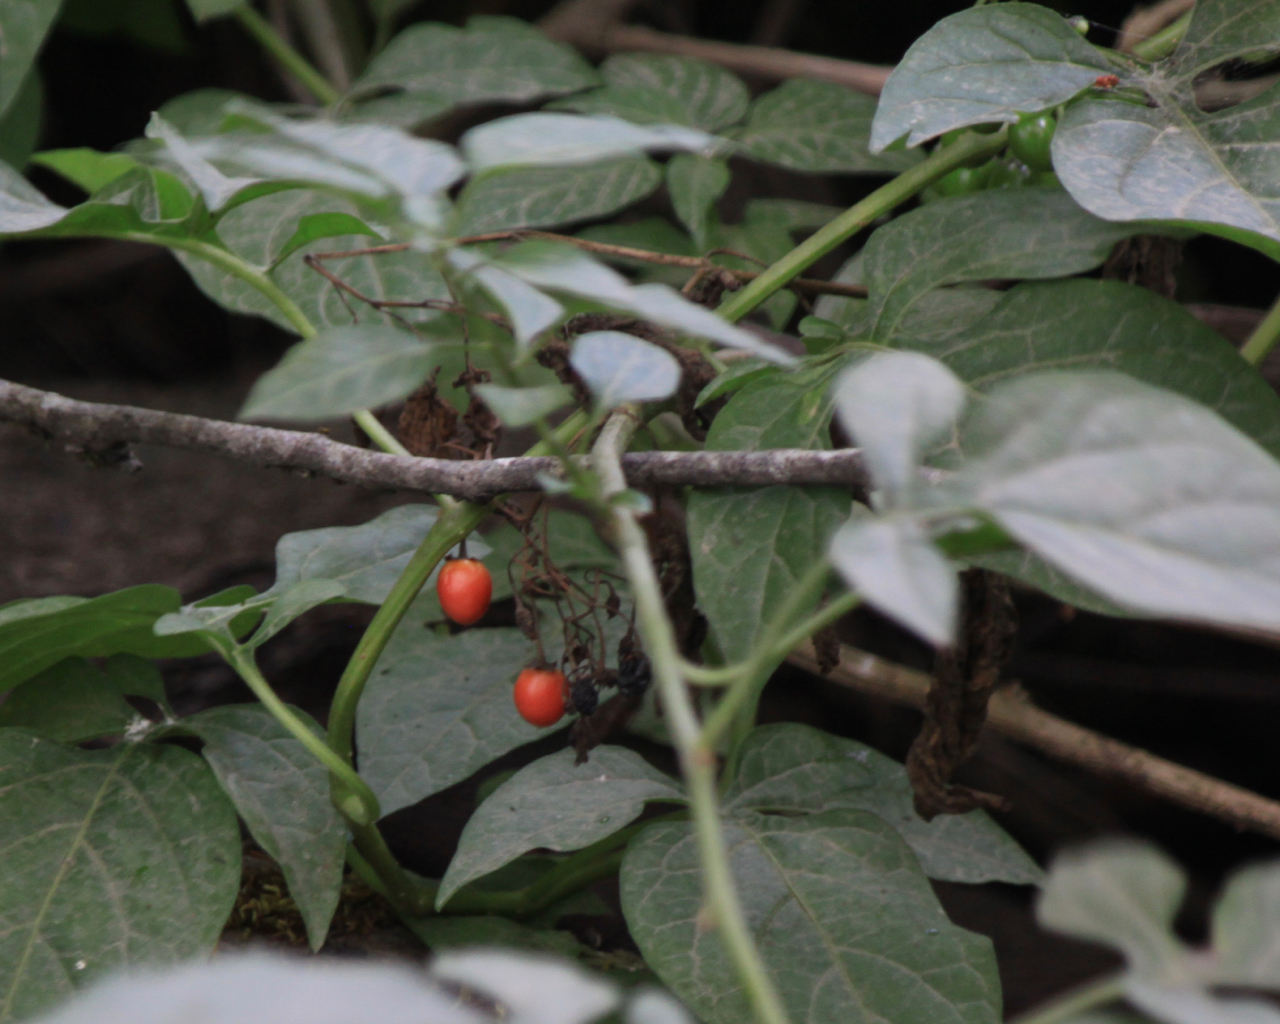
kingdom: Plantae
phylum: Tracheophyta
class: Magnoliopsida
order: Solanales
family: Solanaceae
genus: Solanum
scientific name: Solanum dulcamara
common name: Climbing nightshade
